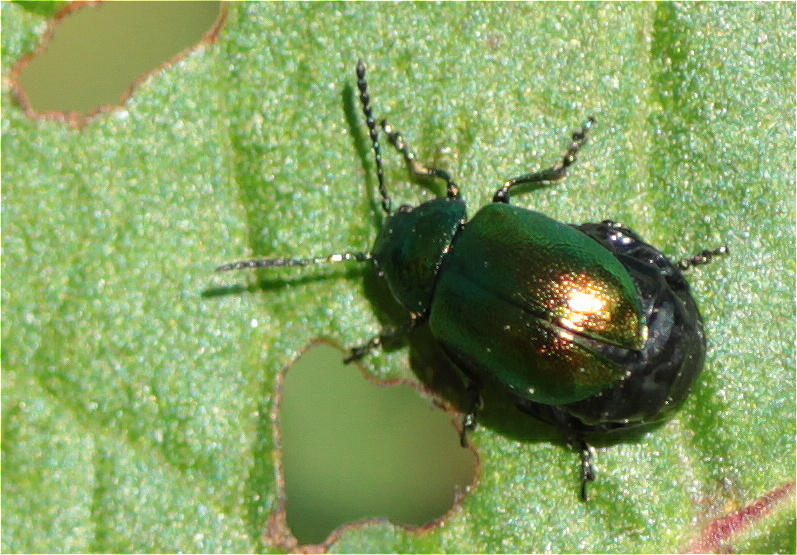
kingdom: Animalia
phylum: Arthropoda
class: Insecta
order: Coleoptera
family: Chrysomelidae
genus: Gastrophysa
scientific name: Gastrophysa viridula
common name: Green dock beetle
